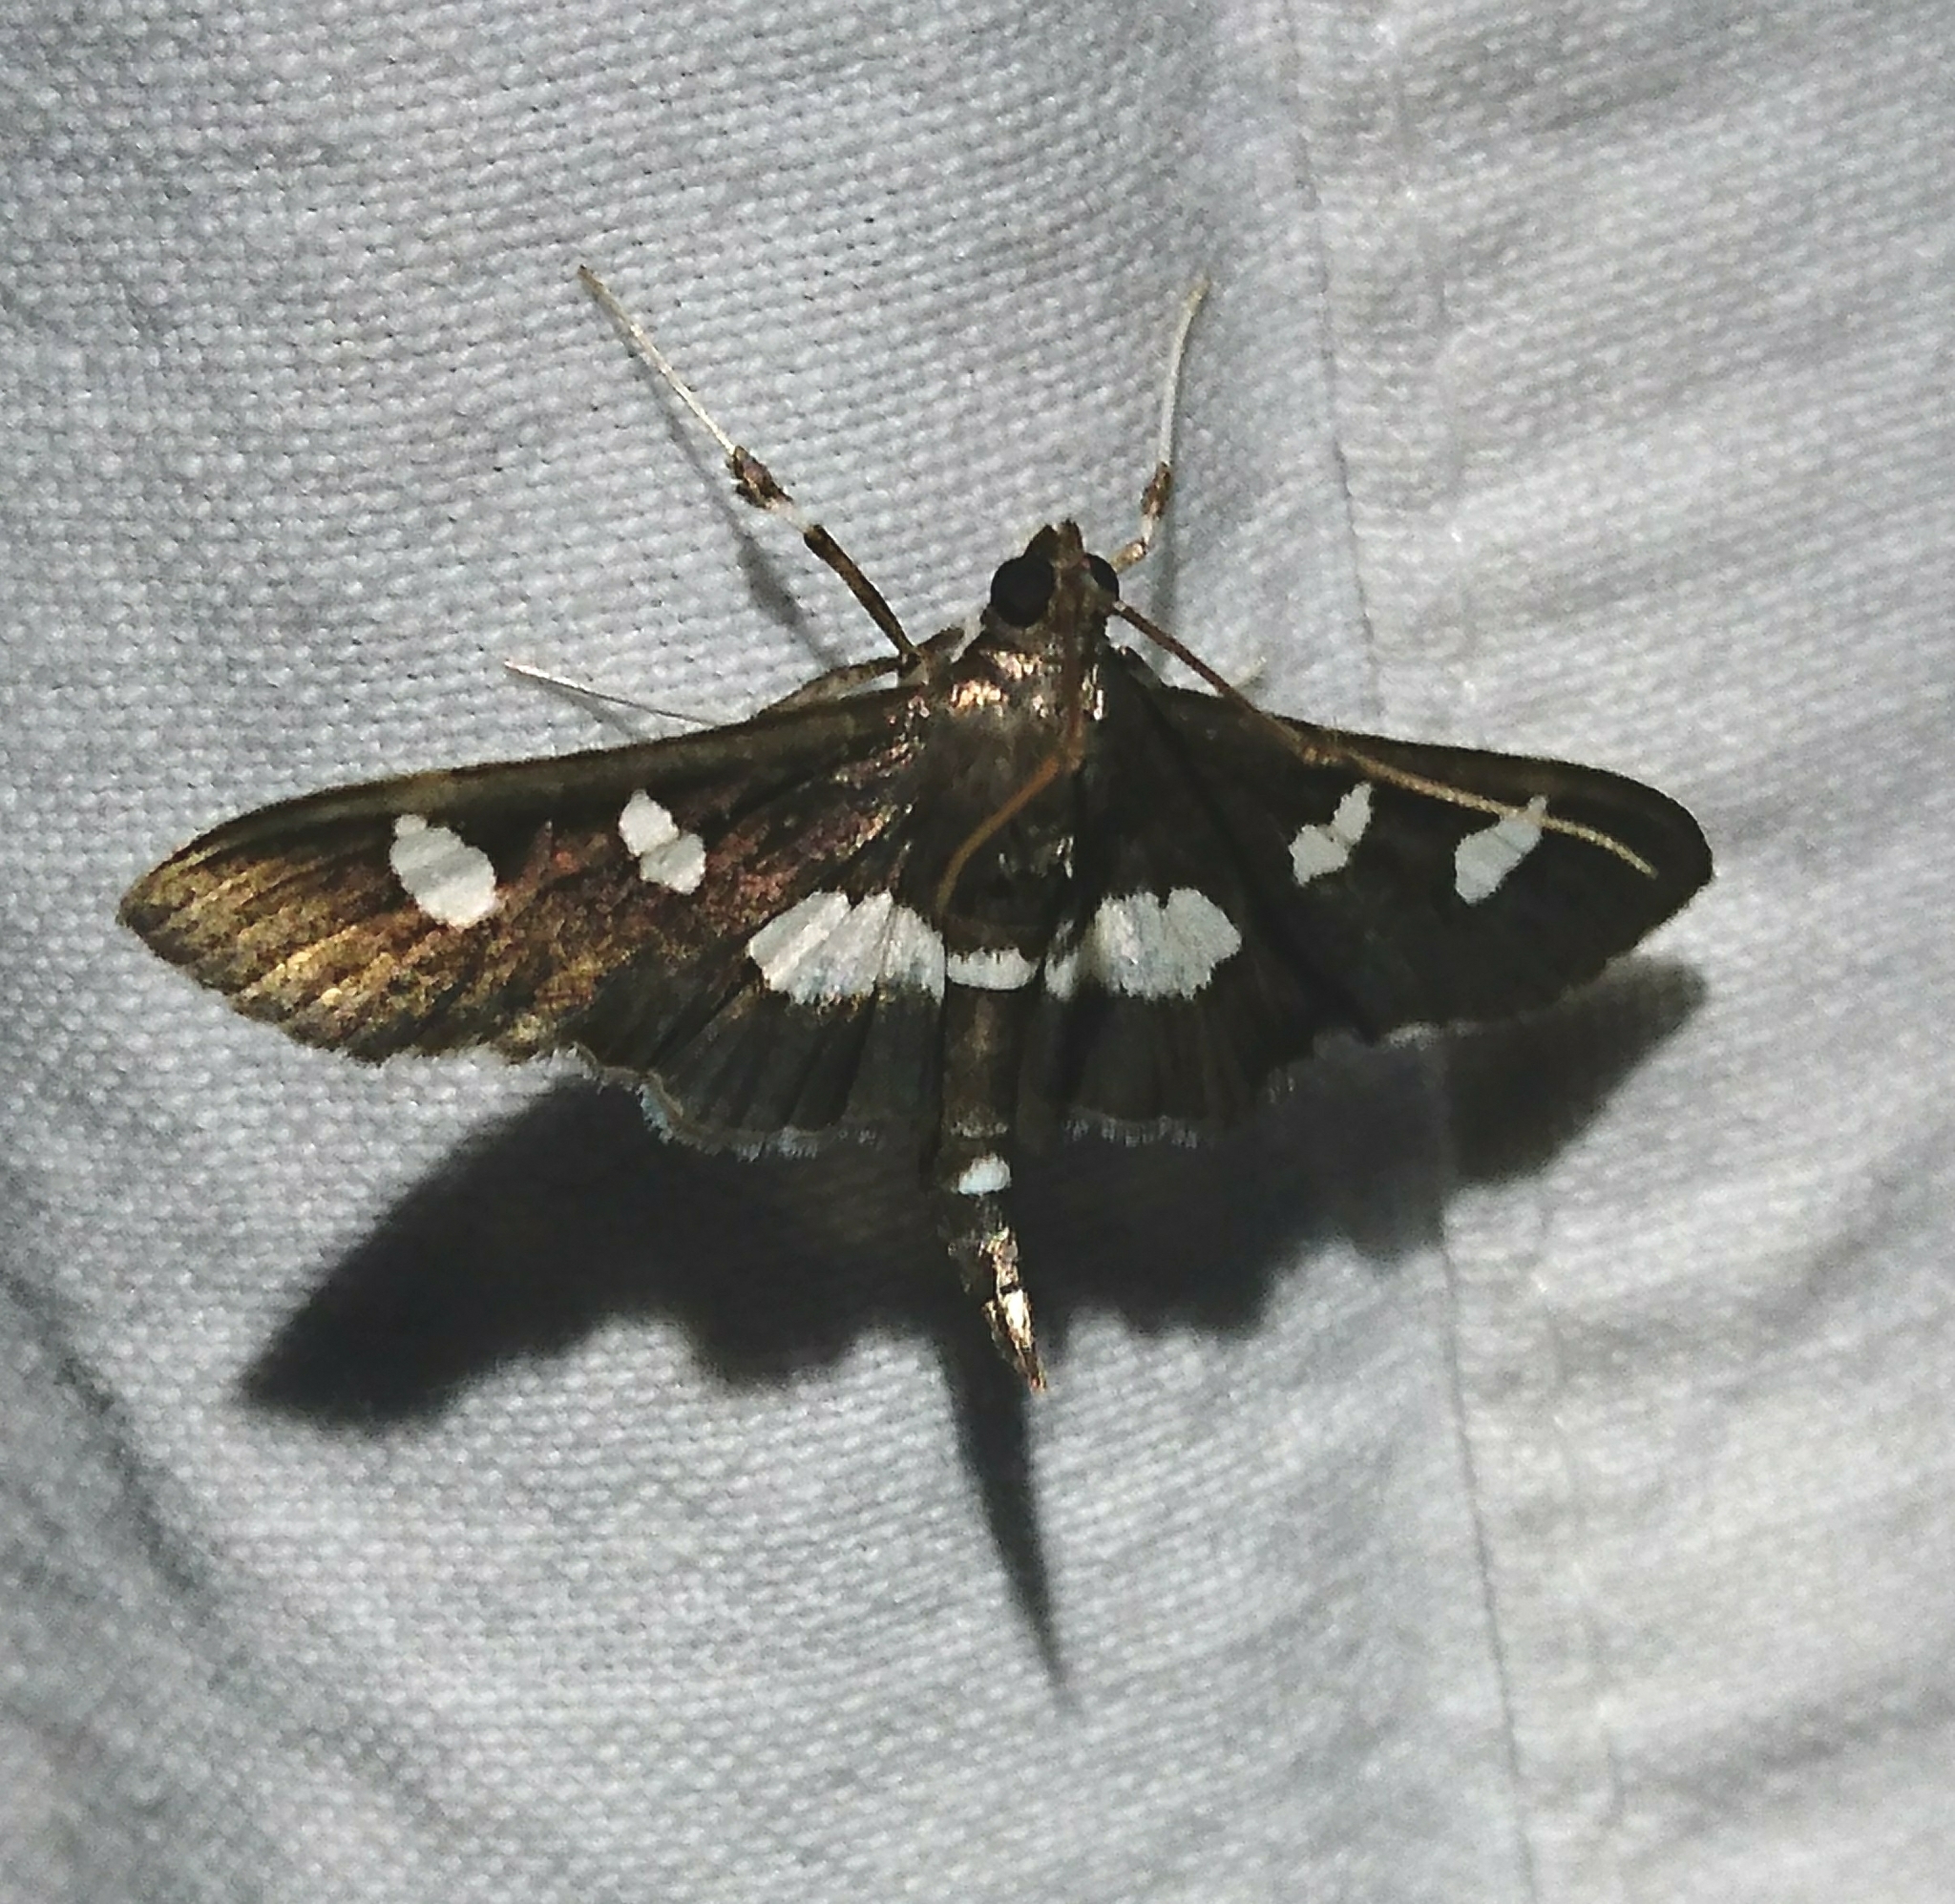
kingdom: Animalia
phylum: Arthropoda
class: Insecta
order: Lepidoptera
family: Crambidae
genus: Desmia
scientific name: Desmia funeralis
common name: Grape leaf folder moth
